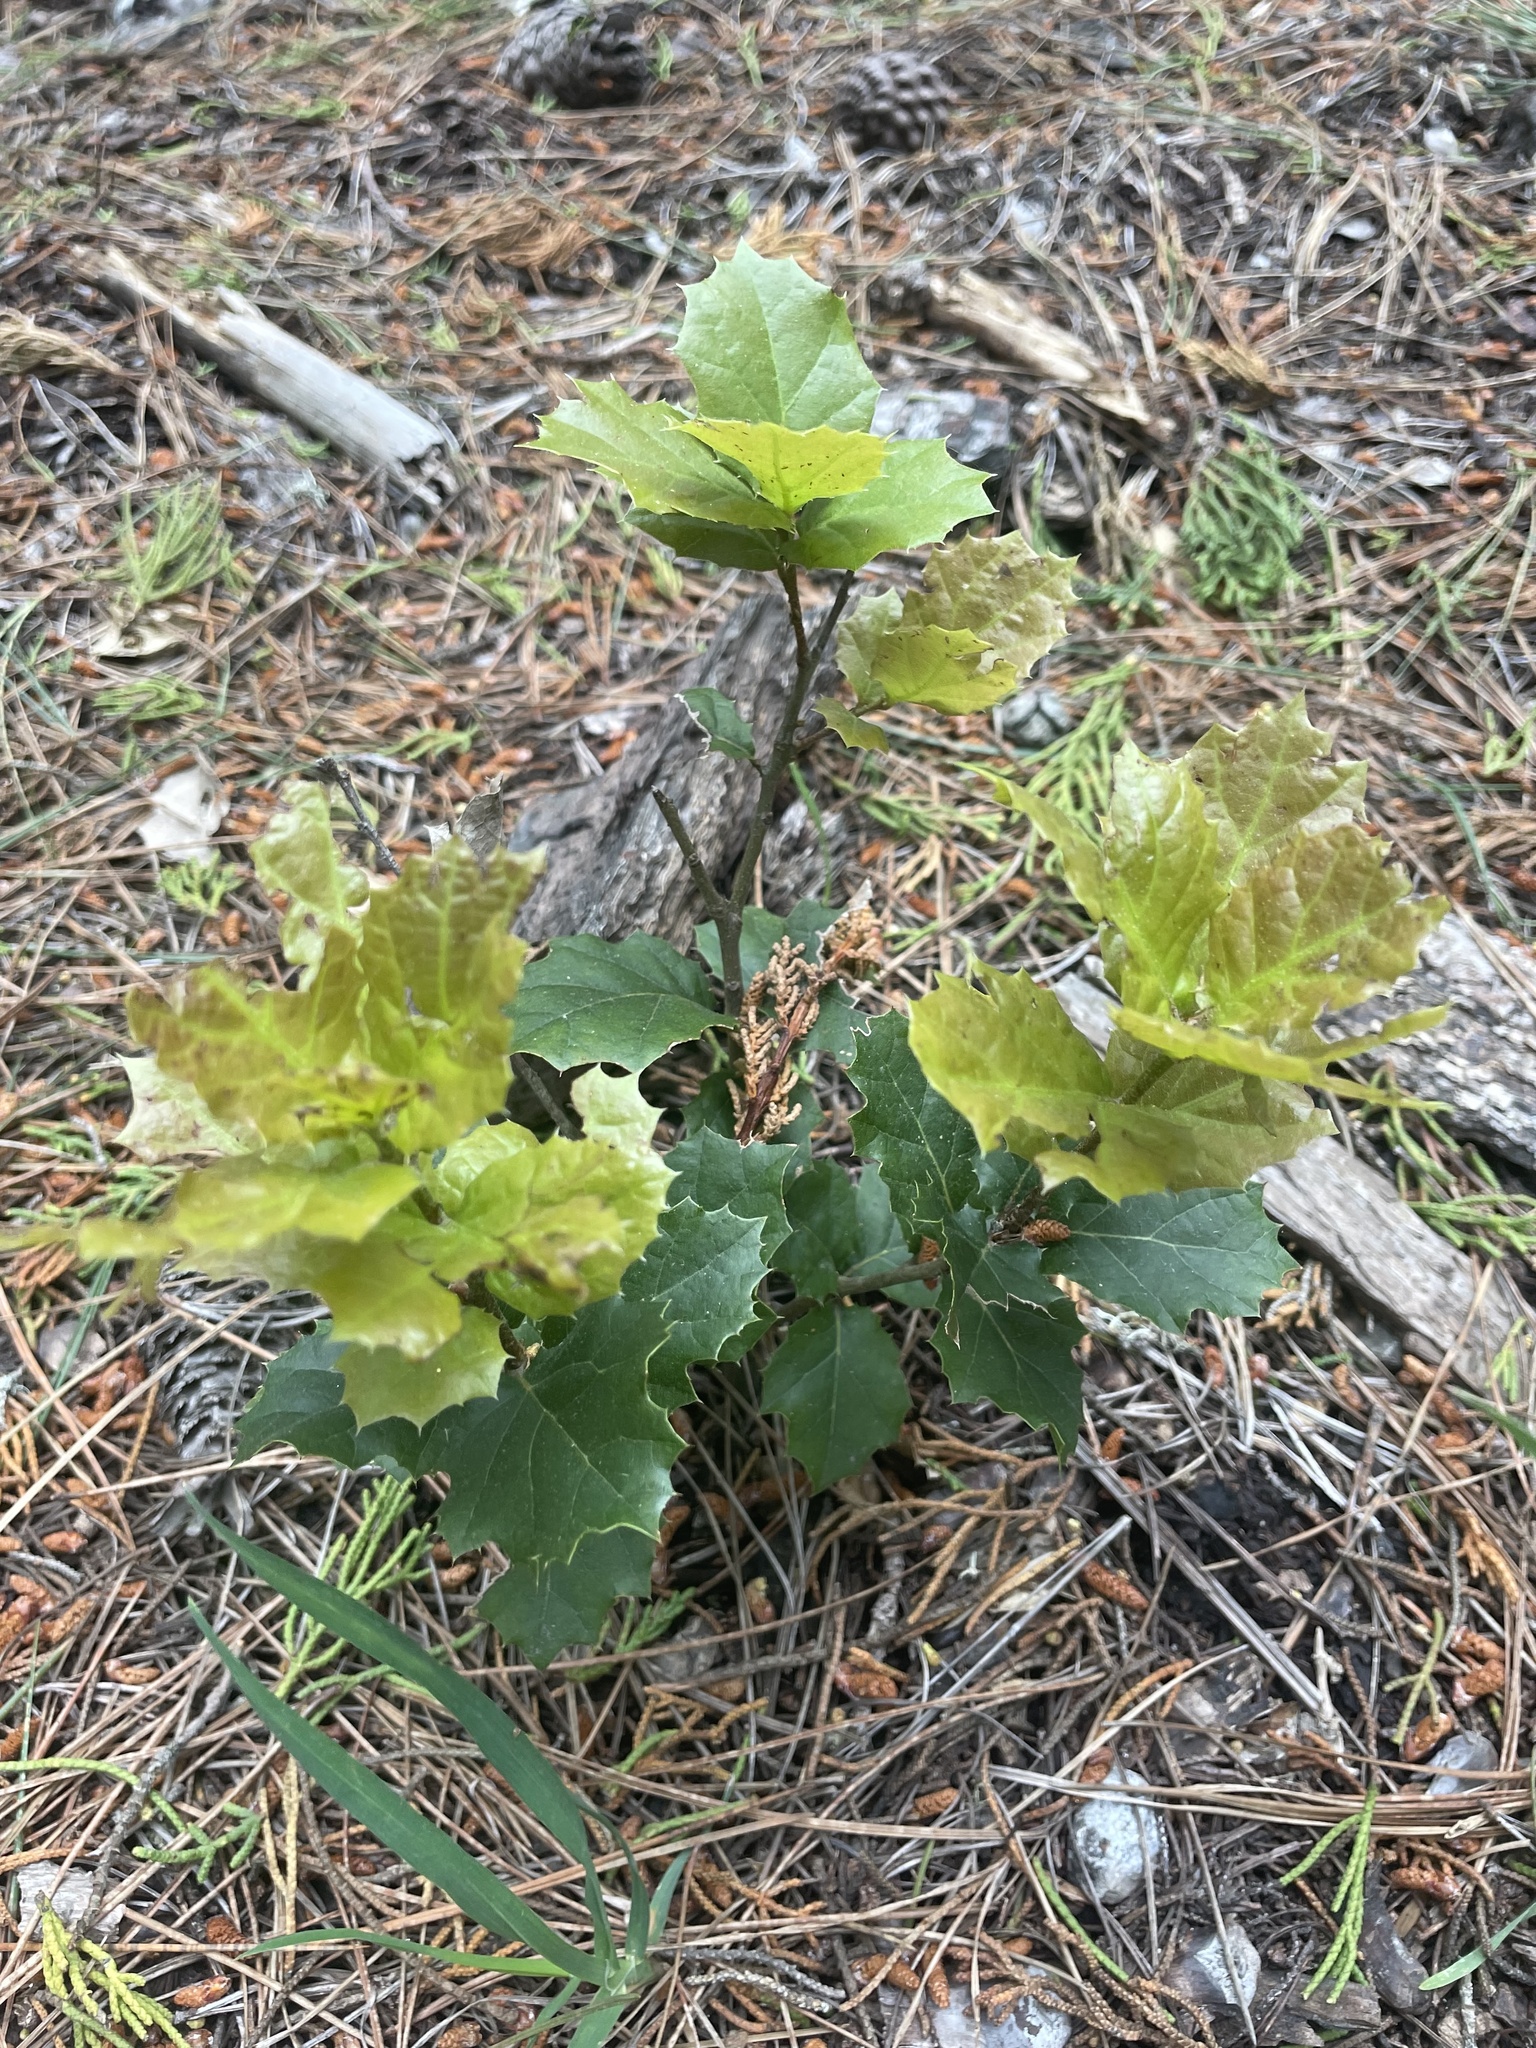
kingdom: Plantae
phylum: Tracheophyta
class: Magnoliopsida
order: Fagales
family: Fagaceae
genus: Quercus
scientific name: Quercus agrifolia
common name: California live oak
